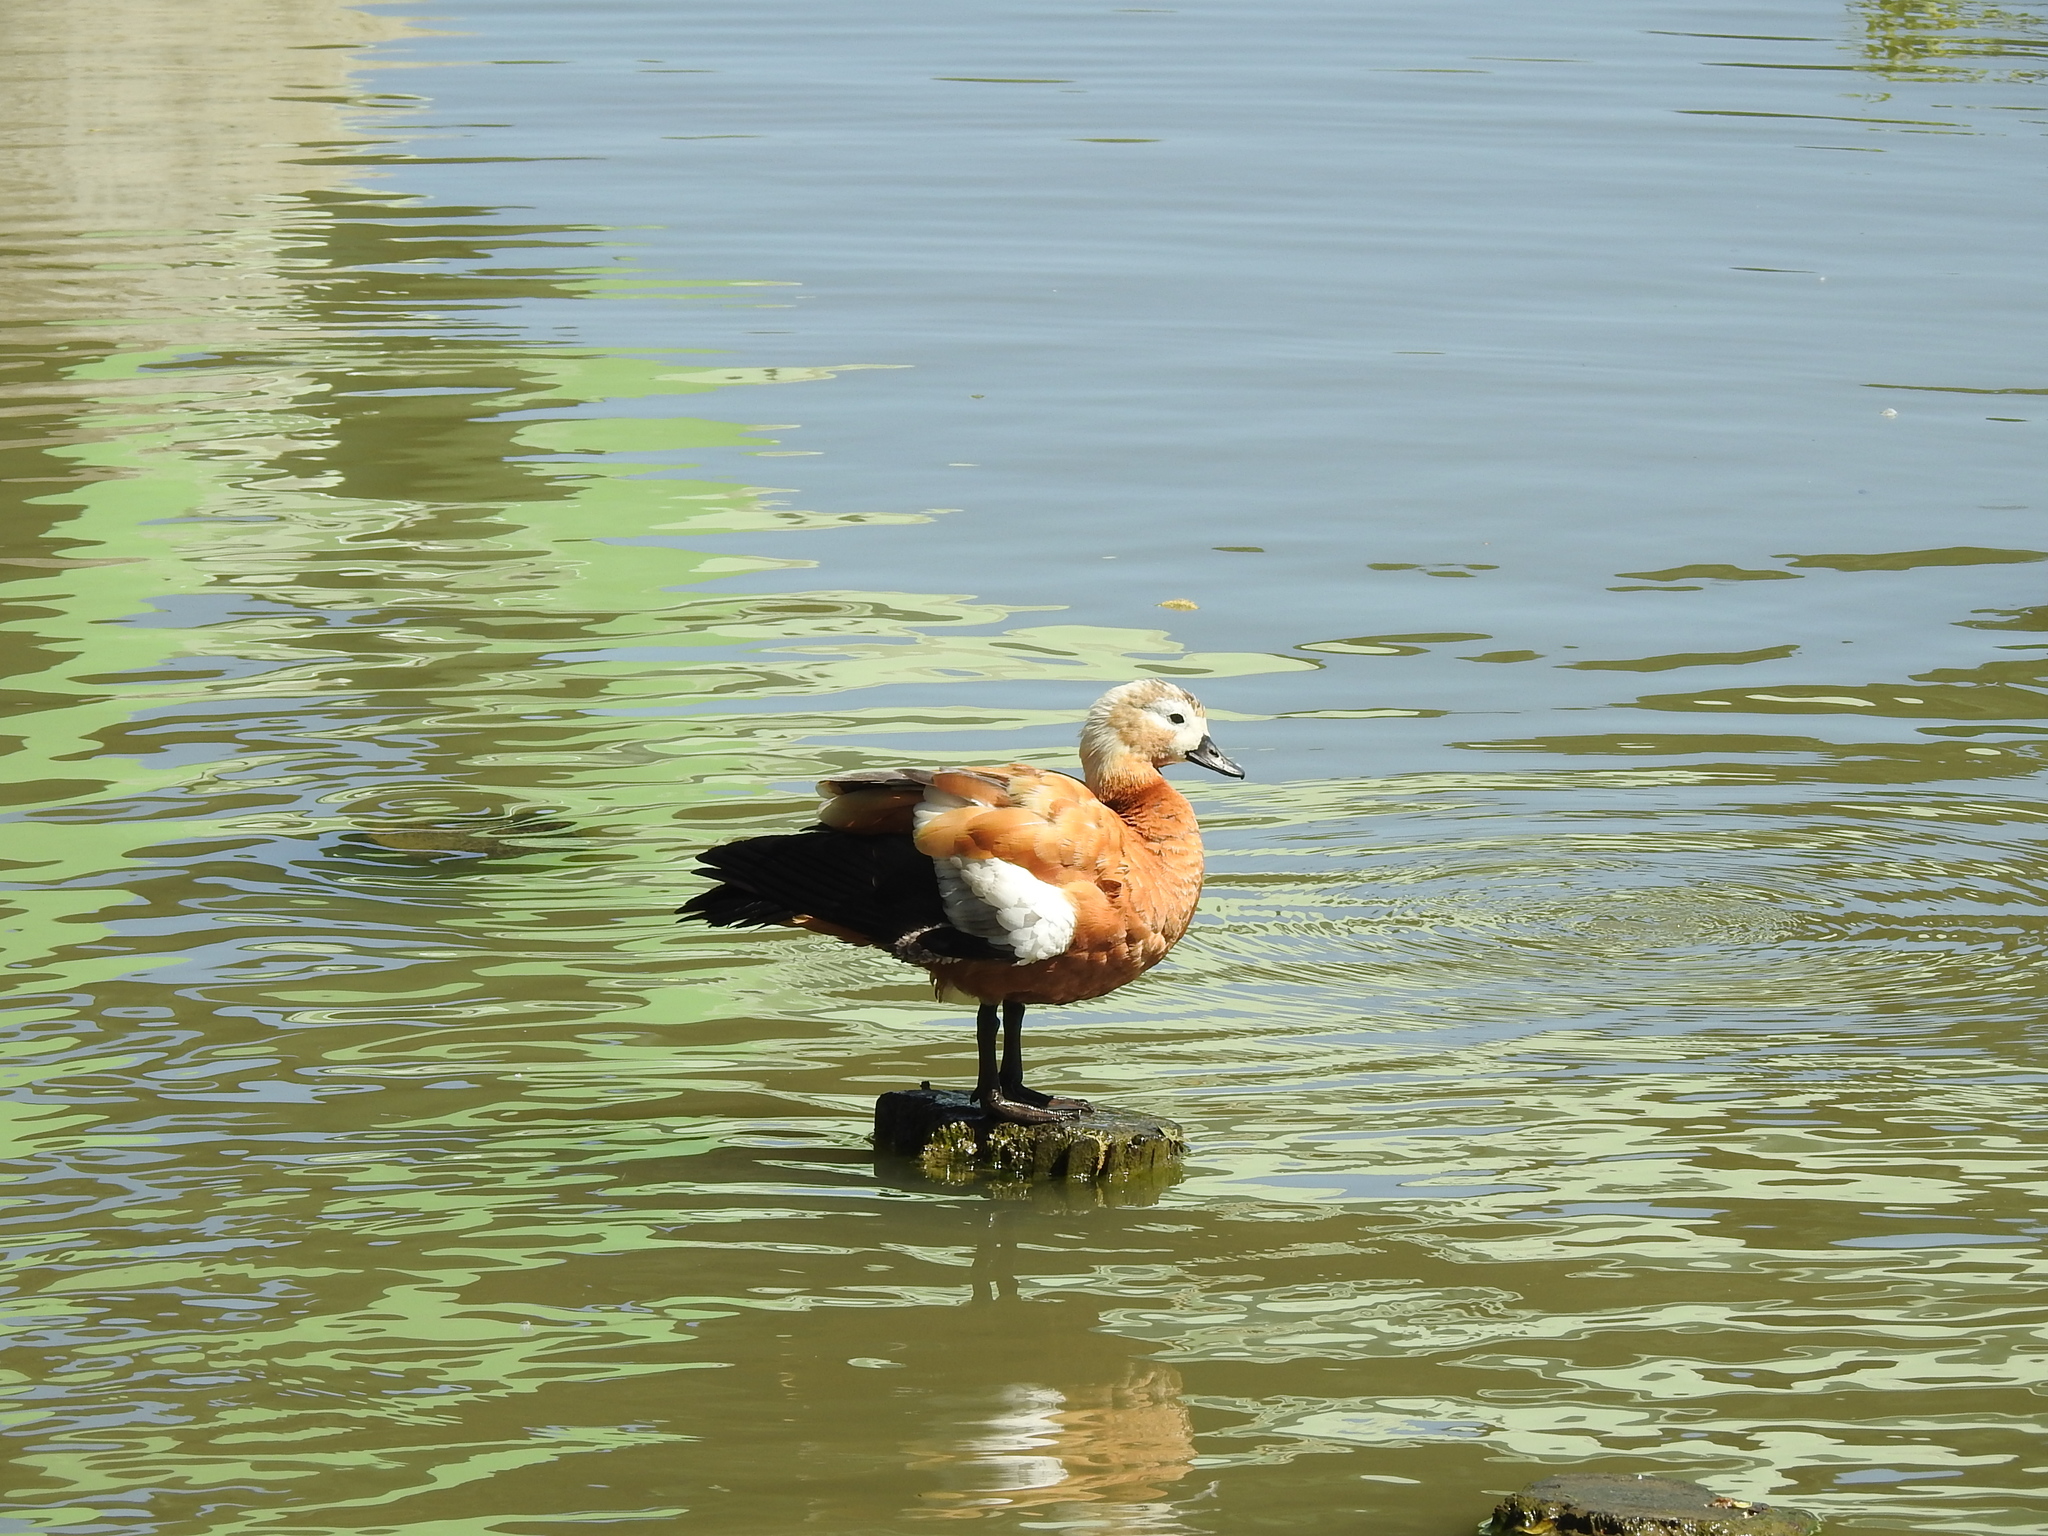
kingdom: Animalia
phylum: Chordata
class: Aves
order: Anseriformes
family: Anatidae
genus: Tadorna
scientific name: Tadorna ferruginea
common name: Ruddy shelduck
